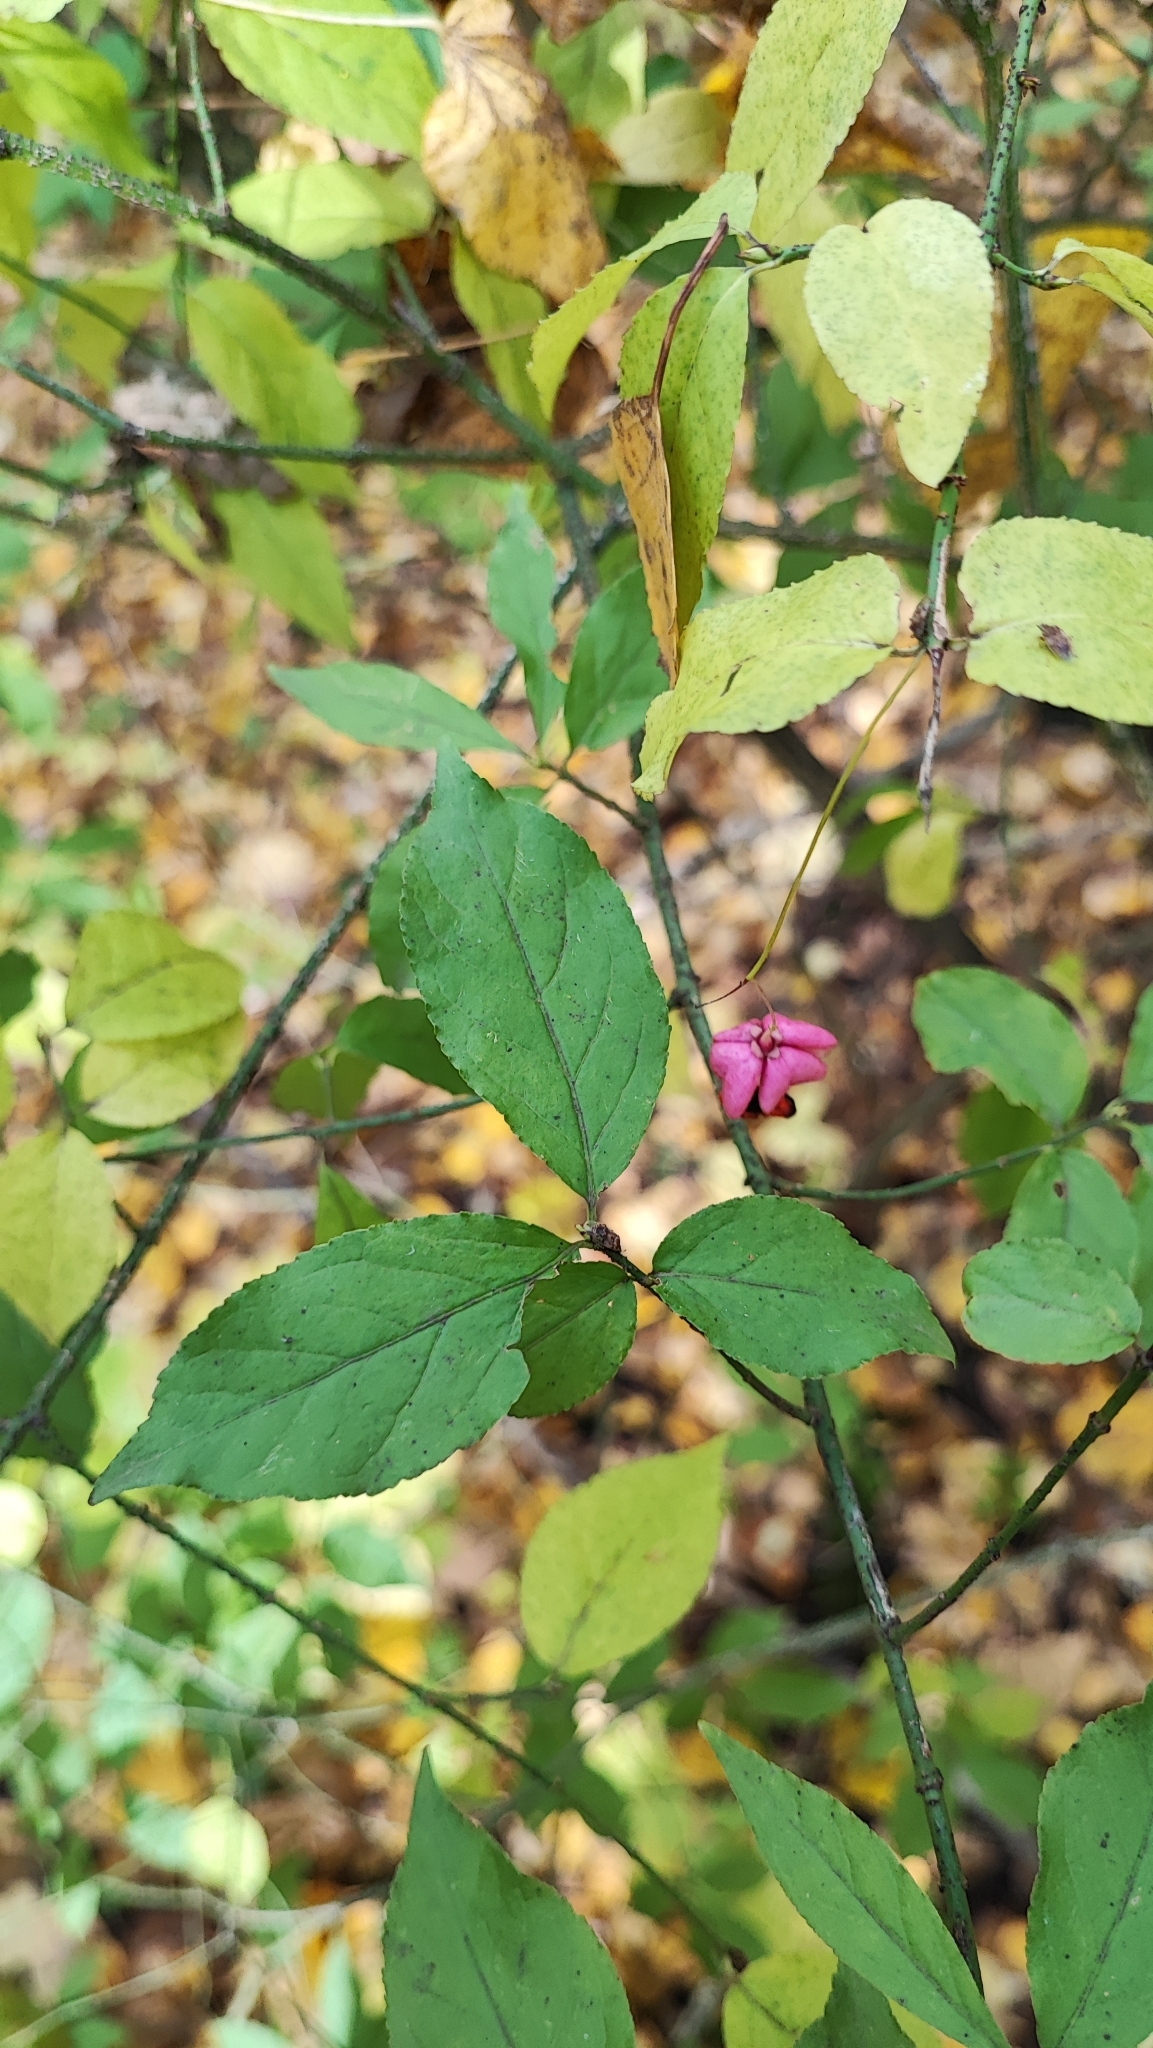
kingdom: Plantae
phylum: Tracheophyta
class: Magnoliopsida
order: Celastrales
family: Celastraceae
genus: Euonymus
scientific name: Euonymus verrucosus
